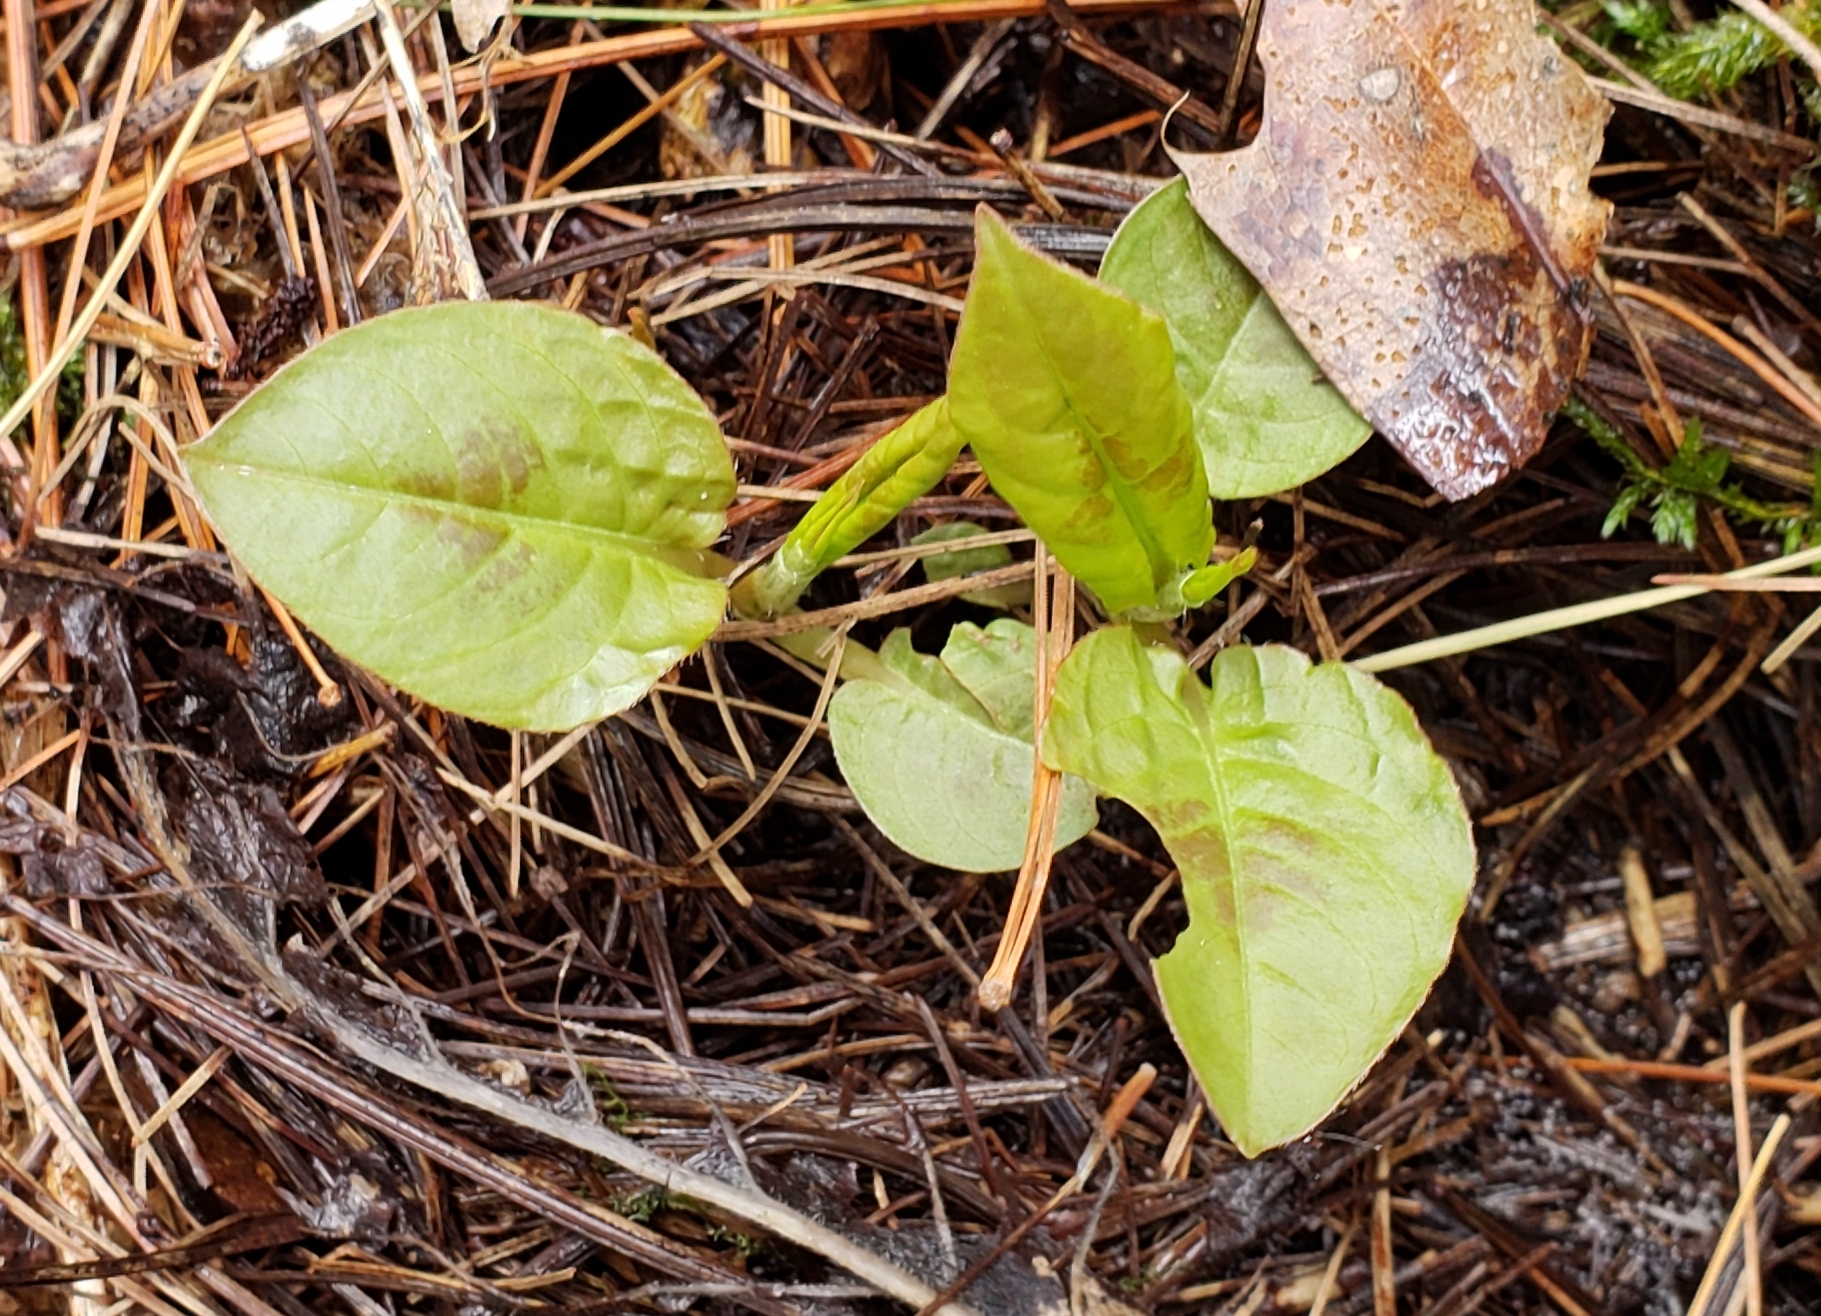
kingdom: Plantae
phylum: Tracheophyta
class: Magnoliopsida
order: Caryophyllales
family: Polygonaceae
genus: Persicaria
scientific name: Persicaria virginiana
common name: Jumpseed
